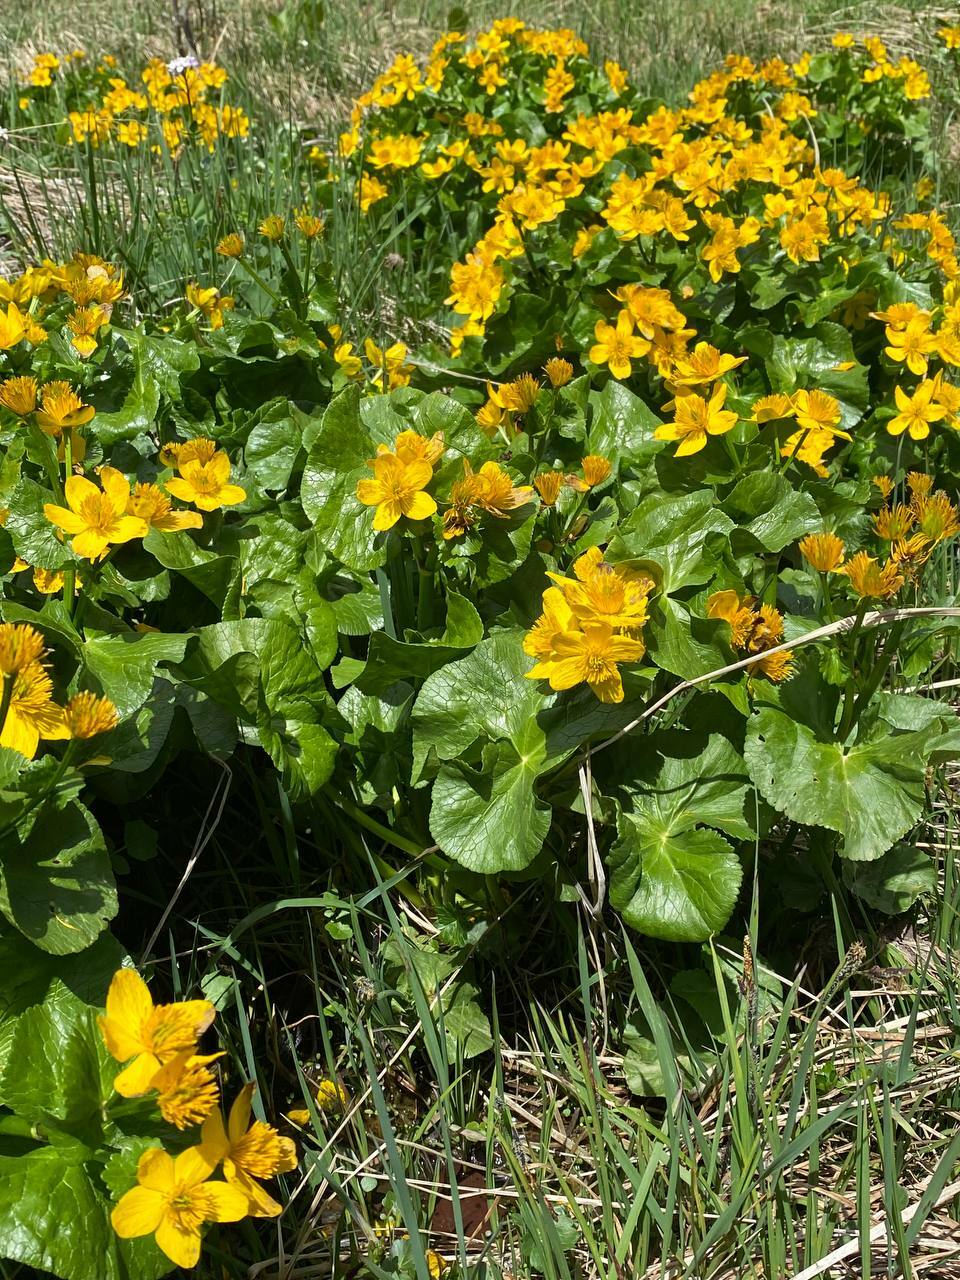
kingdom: Plantae
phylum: Tracheophyta
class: Magnoliopsida
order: Ranunculales
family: Ranunculaceae
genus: Caltha
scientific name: Caltha palustris
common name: Marsh marigold
